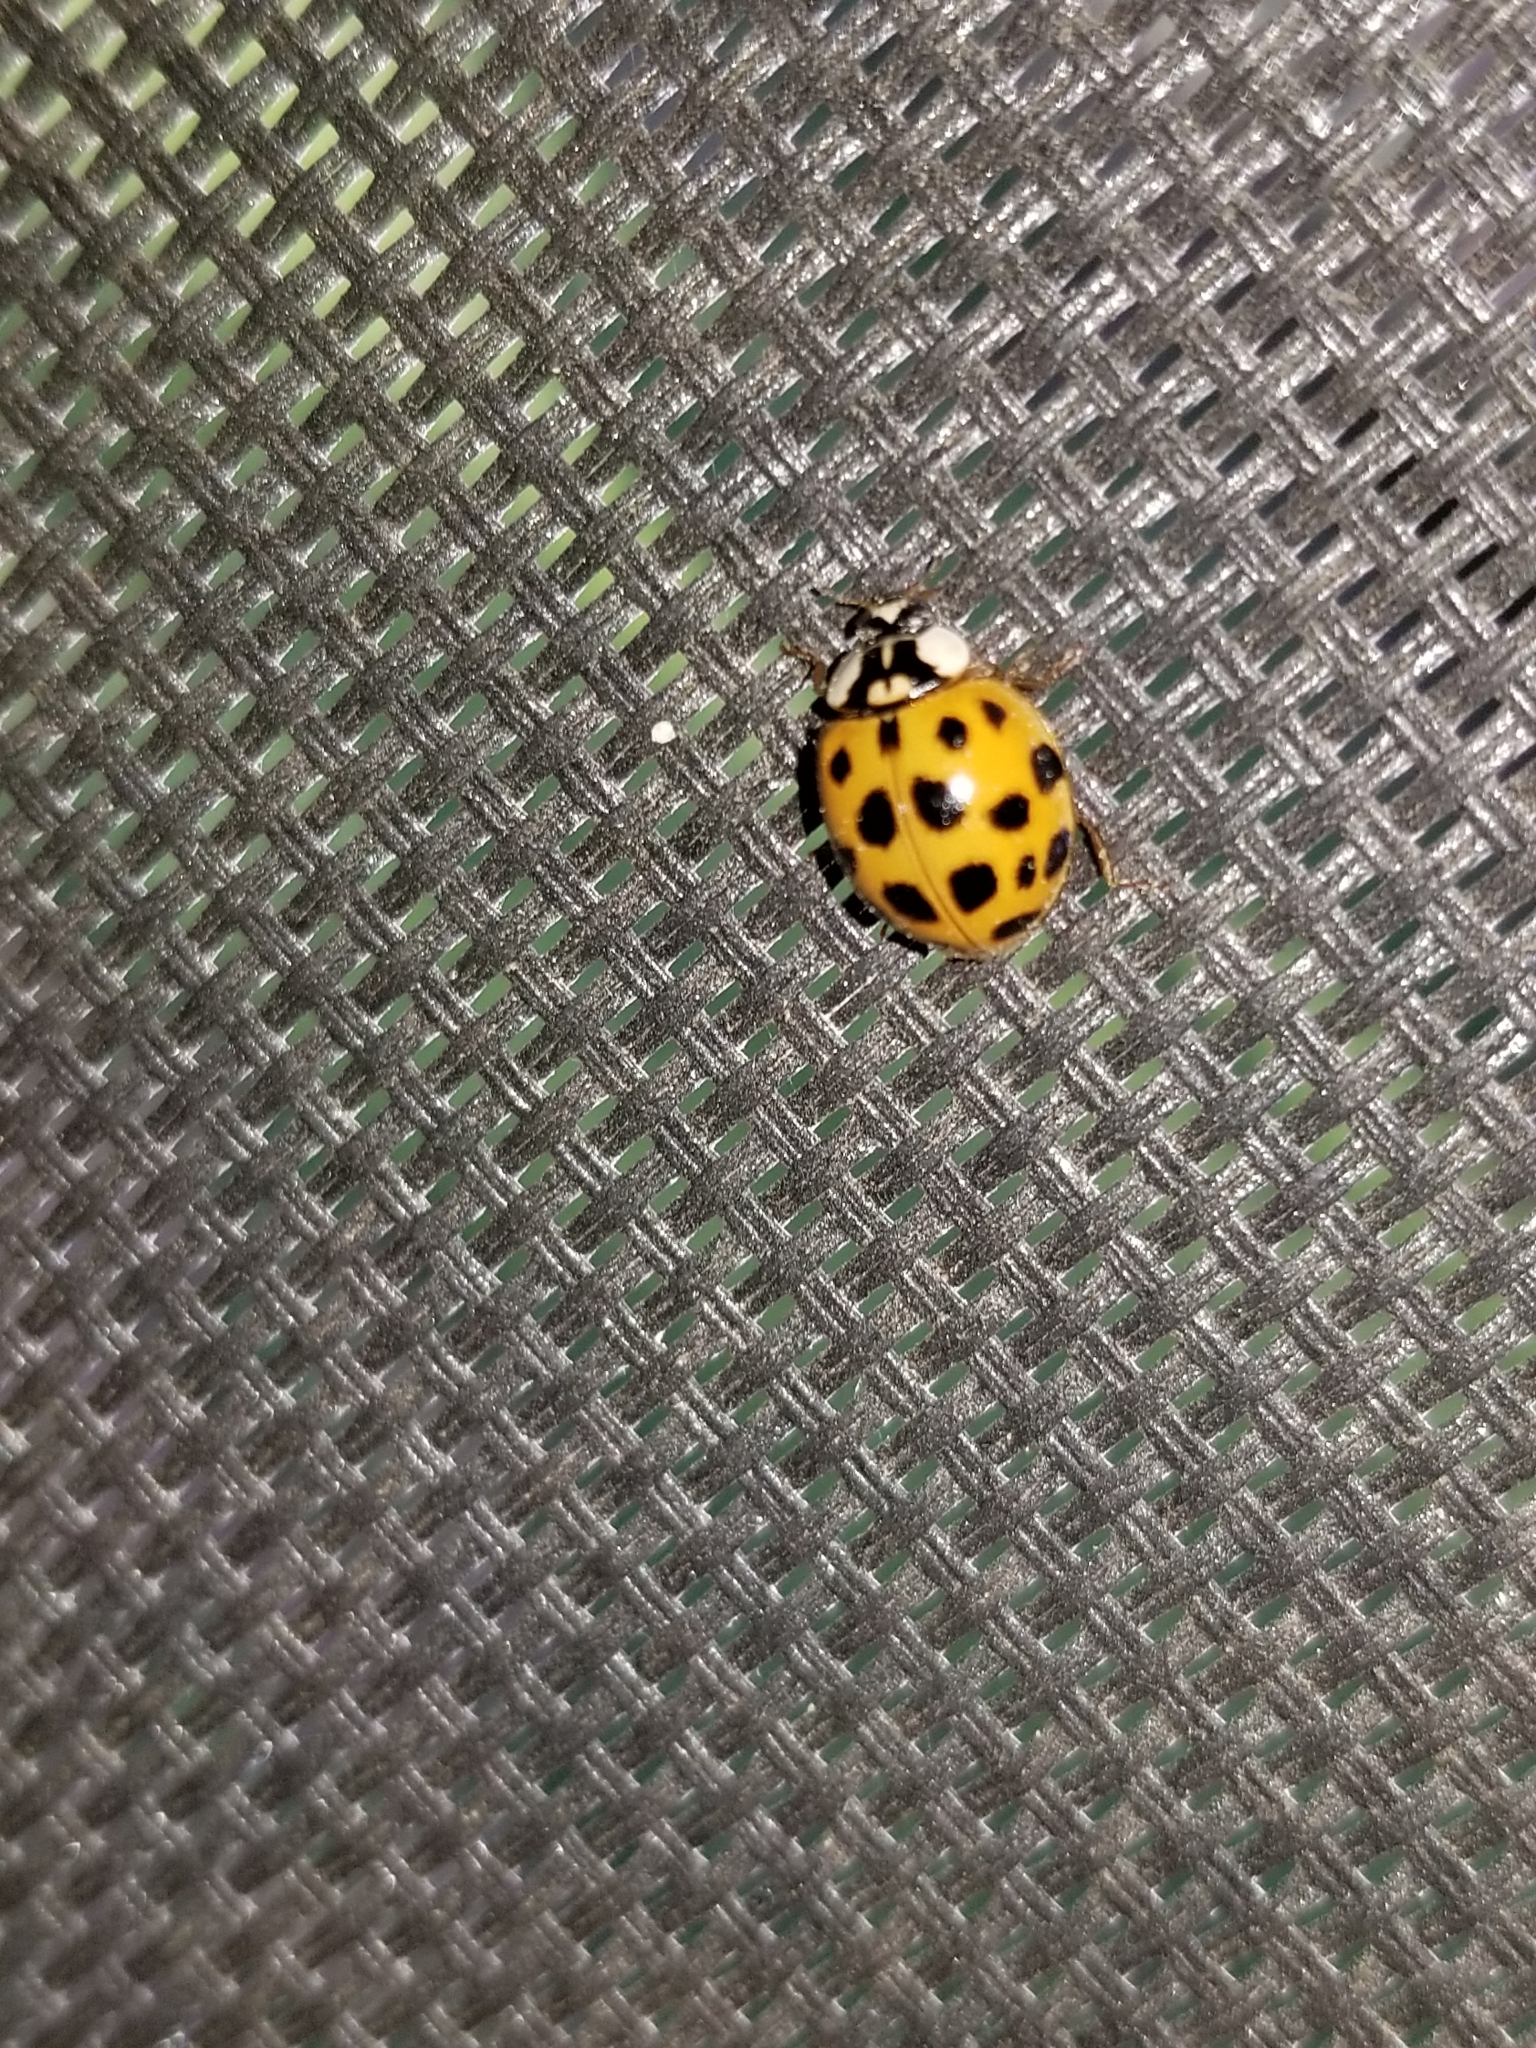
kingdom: Animalia
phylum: Arthropoda
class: Insecta
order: Coleoptera
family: Coccinellidae
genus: Harmonia
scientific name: Harmonia axyridis
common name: Harlequin ladybird
